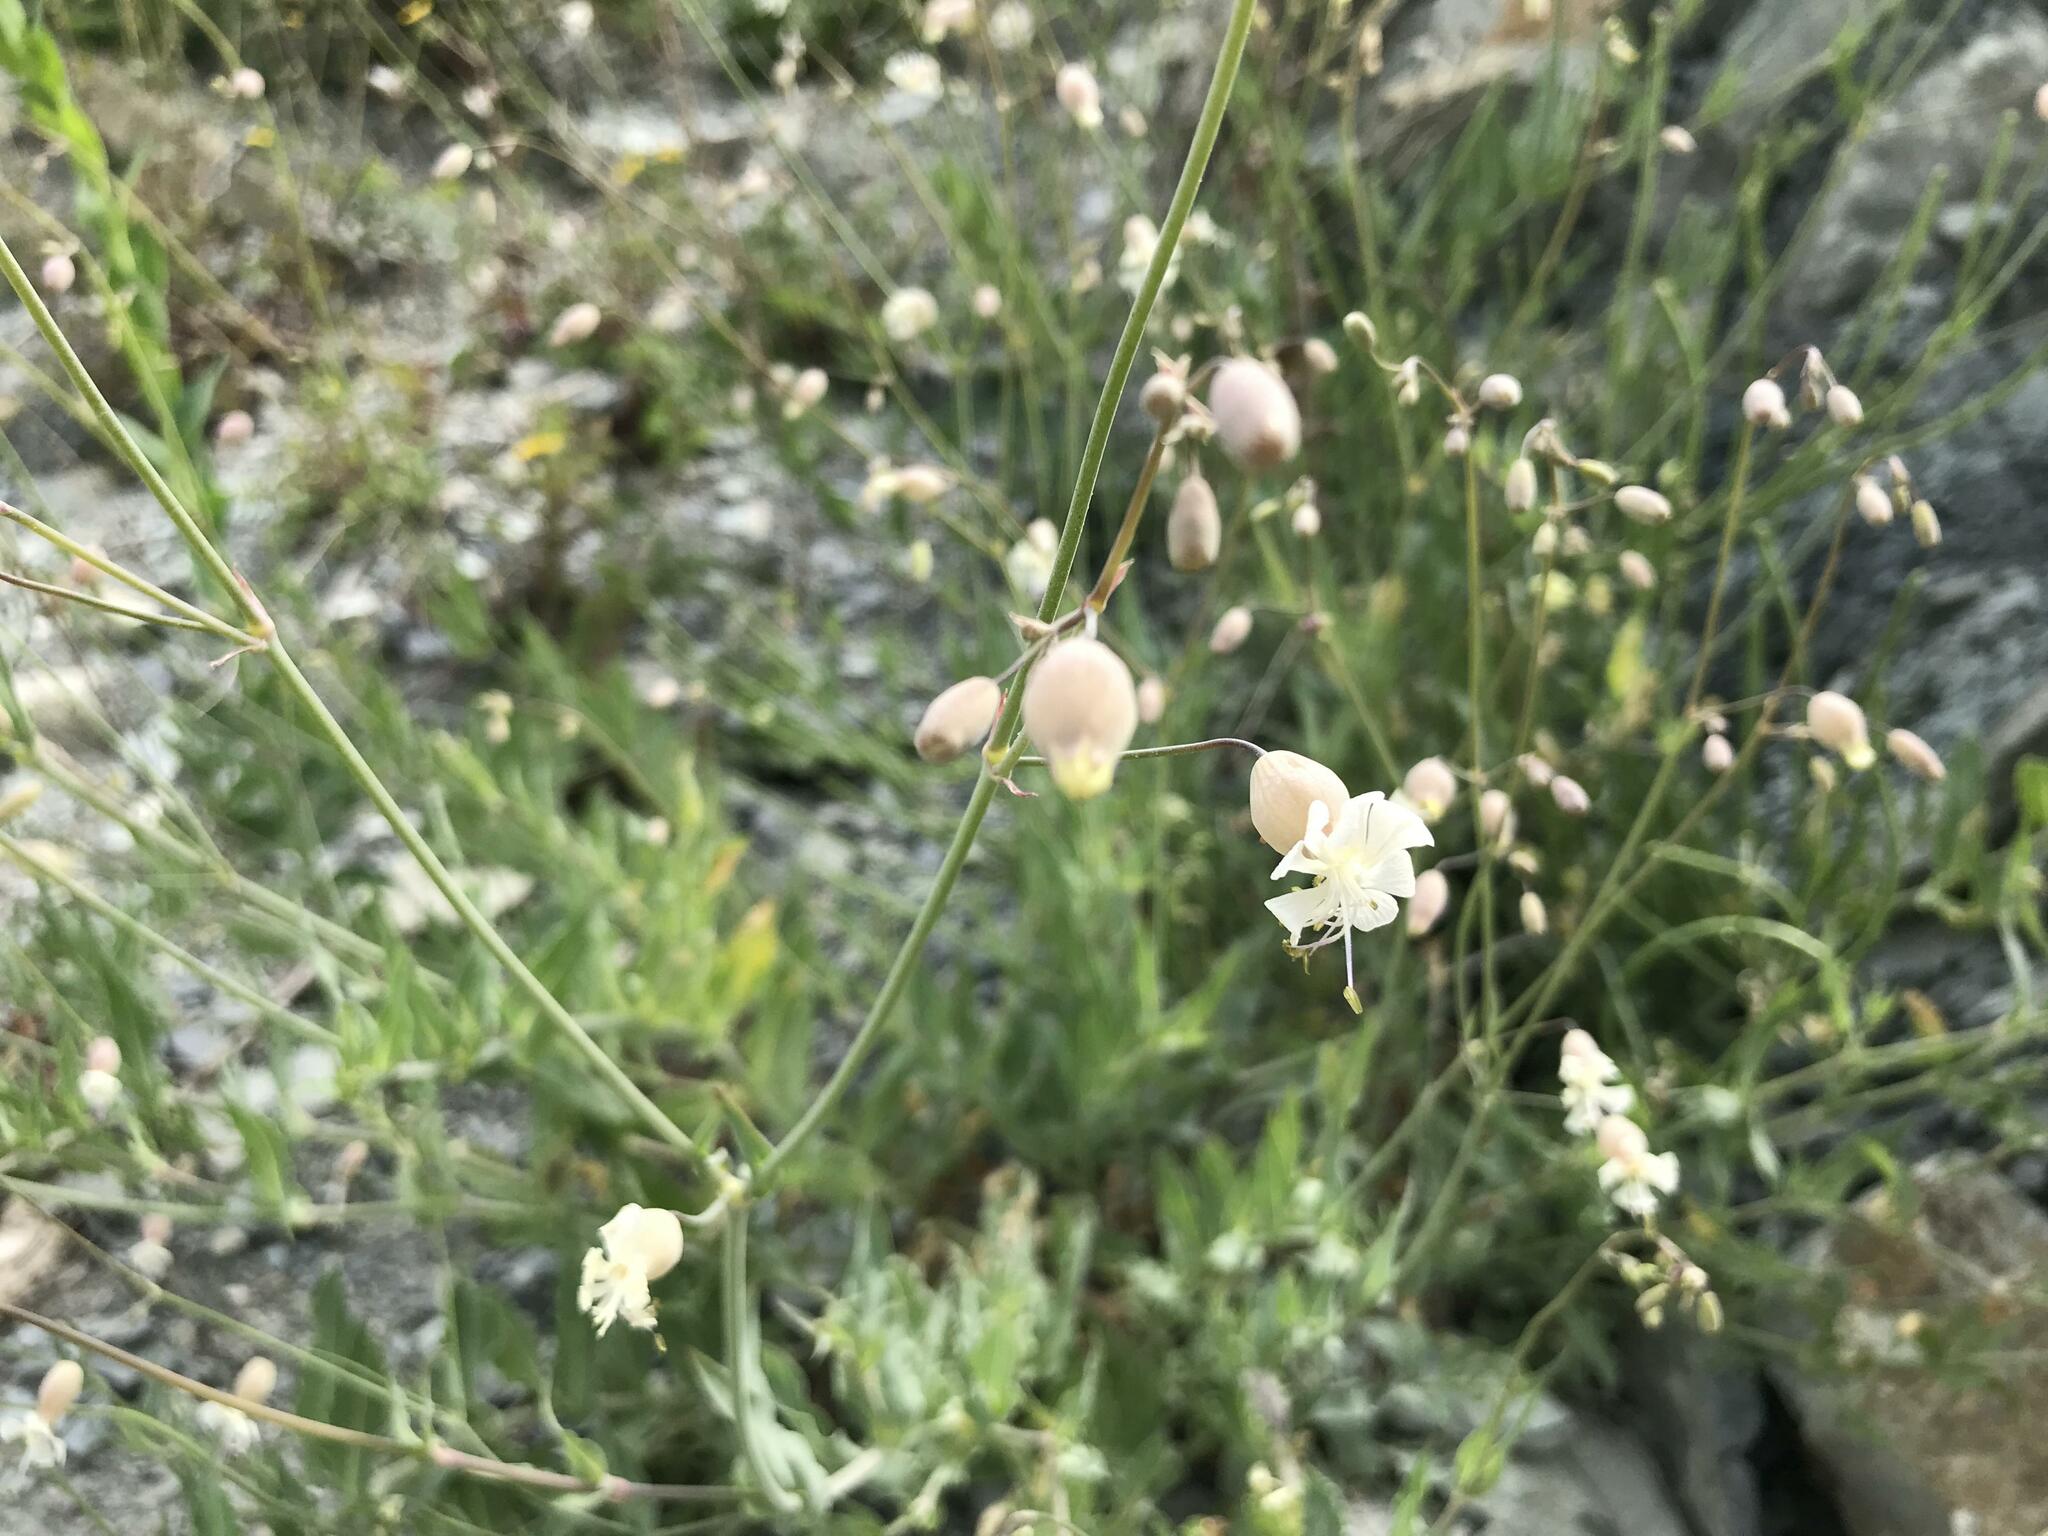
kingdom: Plantae
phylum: Tracheophyta
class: Magnoliopsida
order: Caryophyllales
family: Caryophyllaceae
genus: Silene
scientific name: Silene crispata
